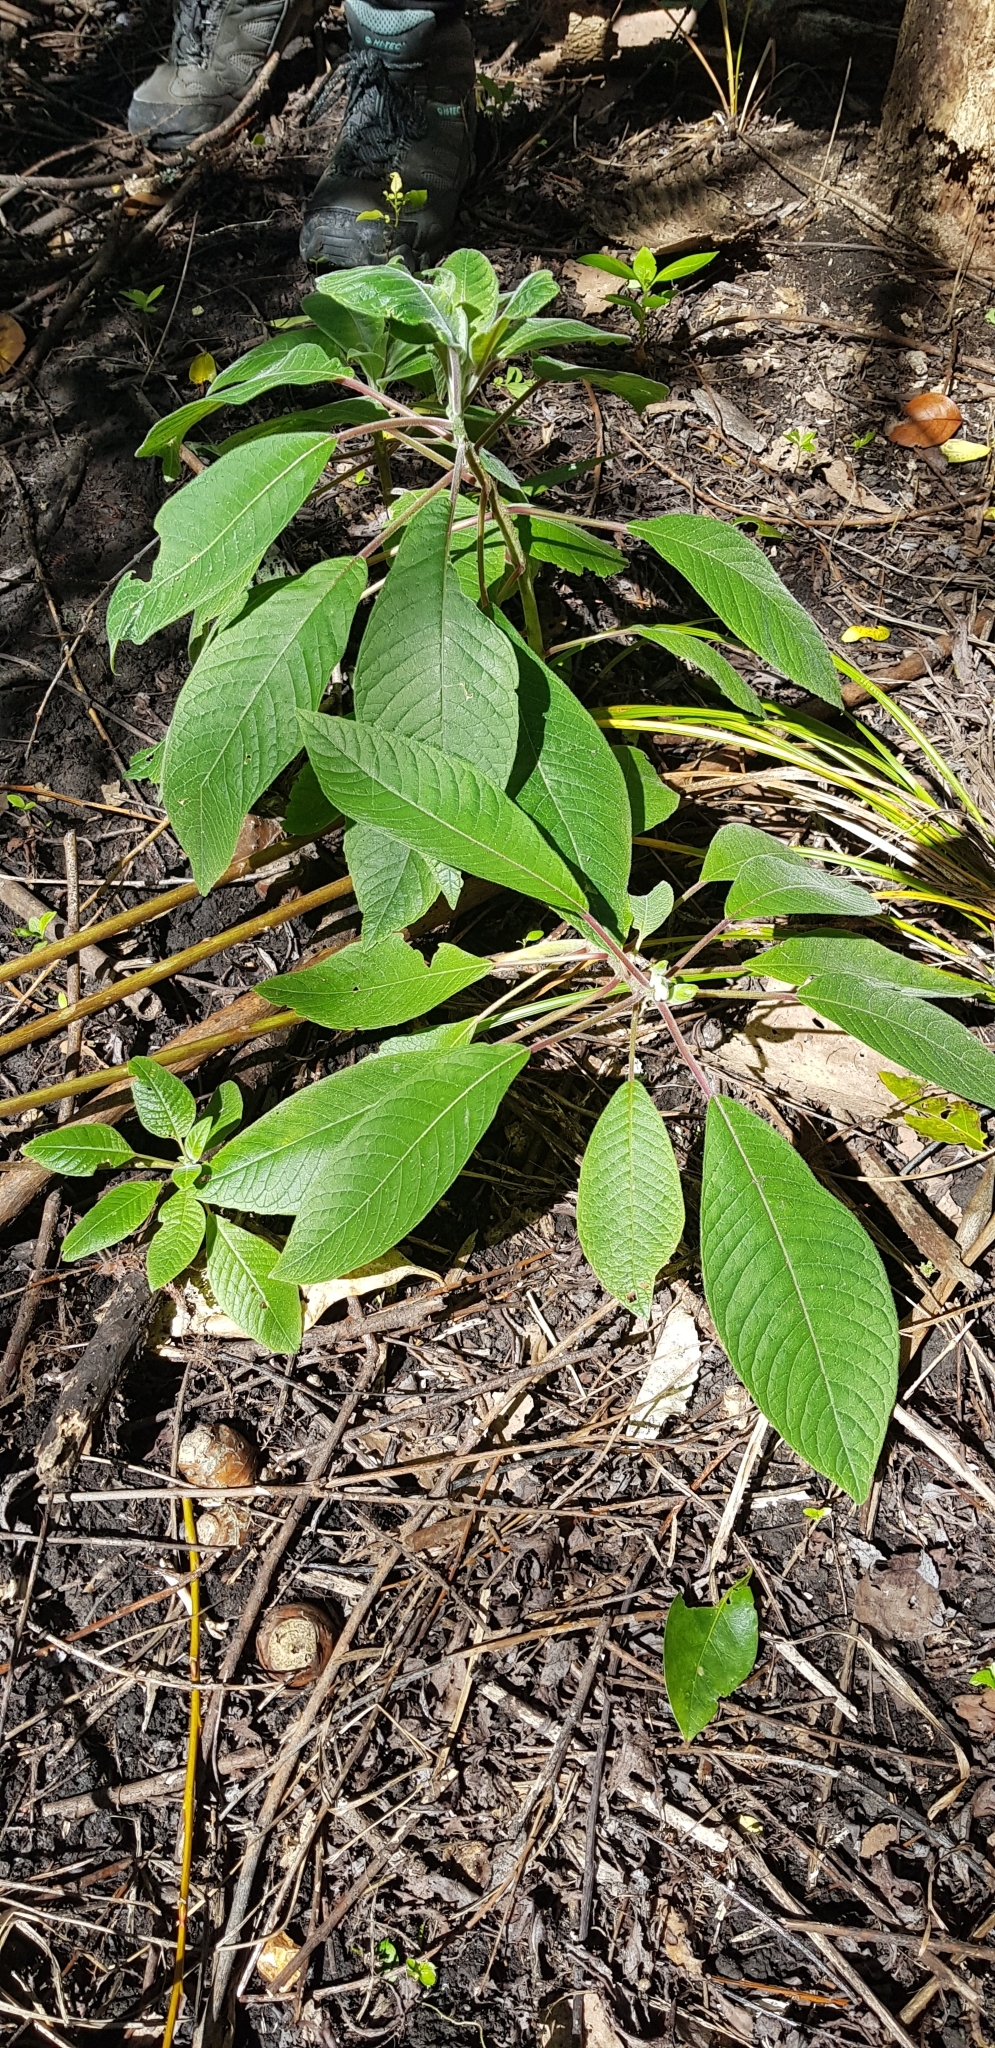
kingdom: Plantae
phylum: Tracheophyta
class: Magnoliopsida
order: Myrtales
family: Onagraceae
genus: Fuchsia
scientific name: Fuchsia boliviana
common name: Bolivian fuchsia
